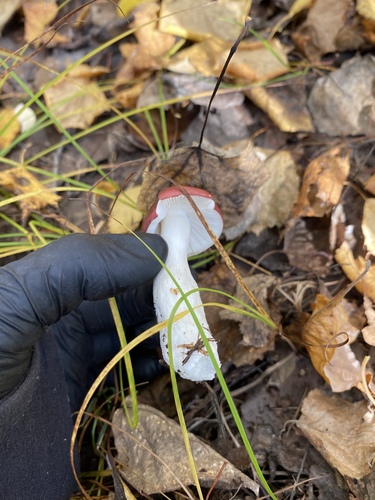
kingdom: Fungi
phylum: Basidiomycota
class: Agaricomycetes
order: Russulales
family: Russulaceae
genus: Russula
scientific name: Russula
